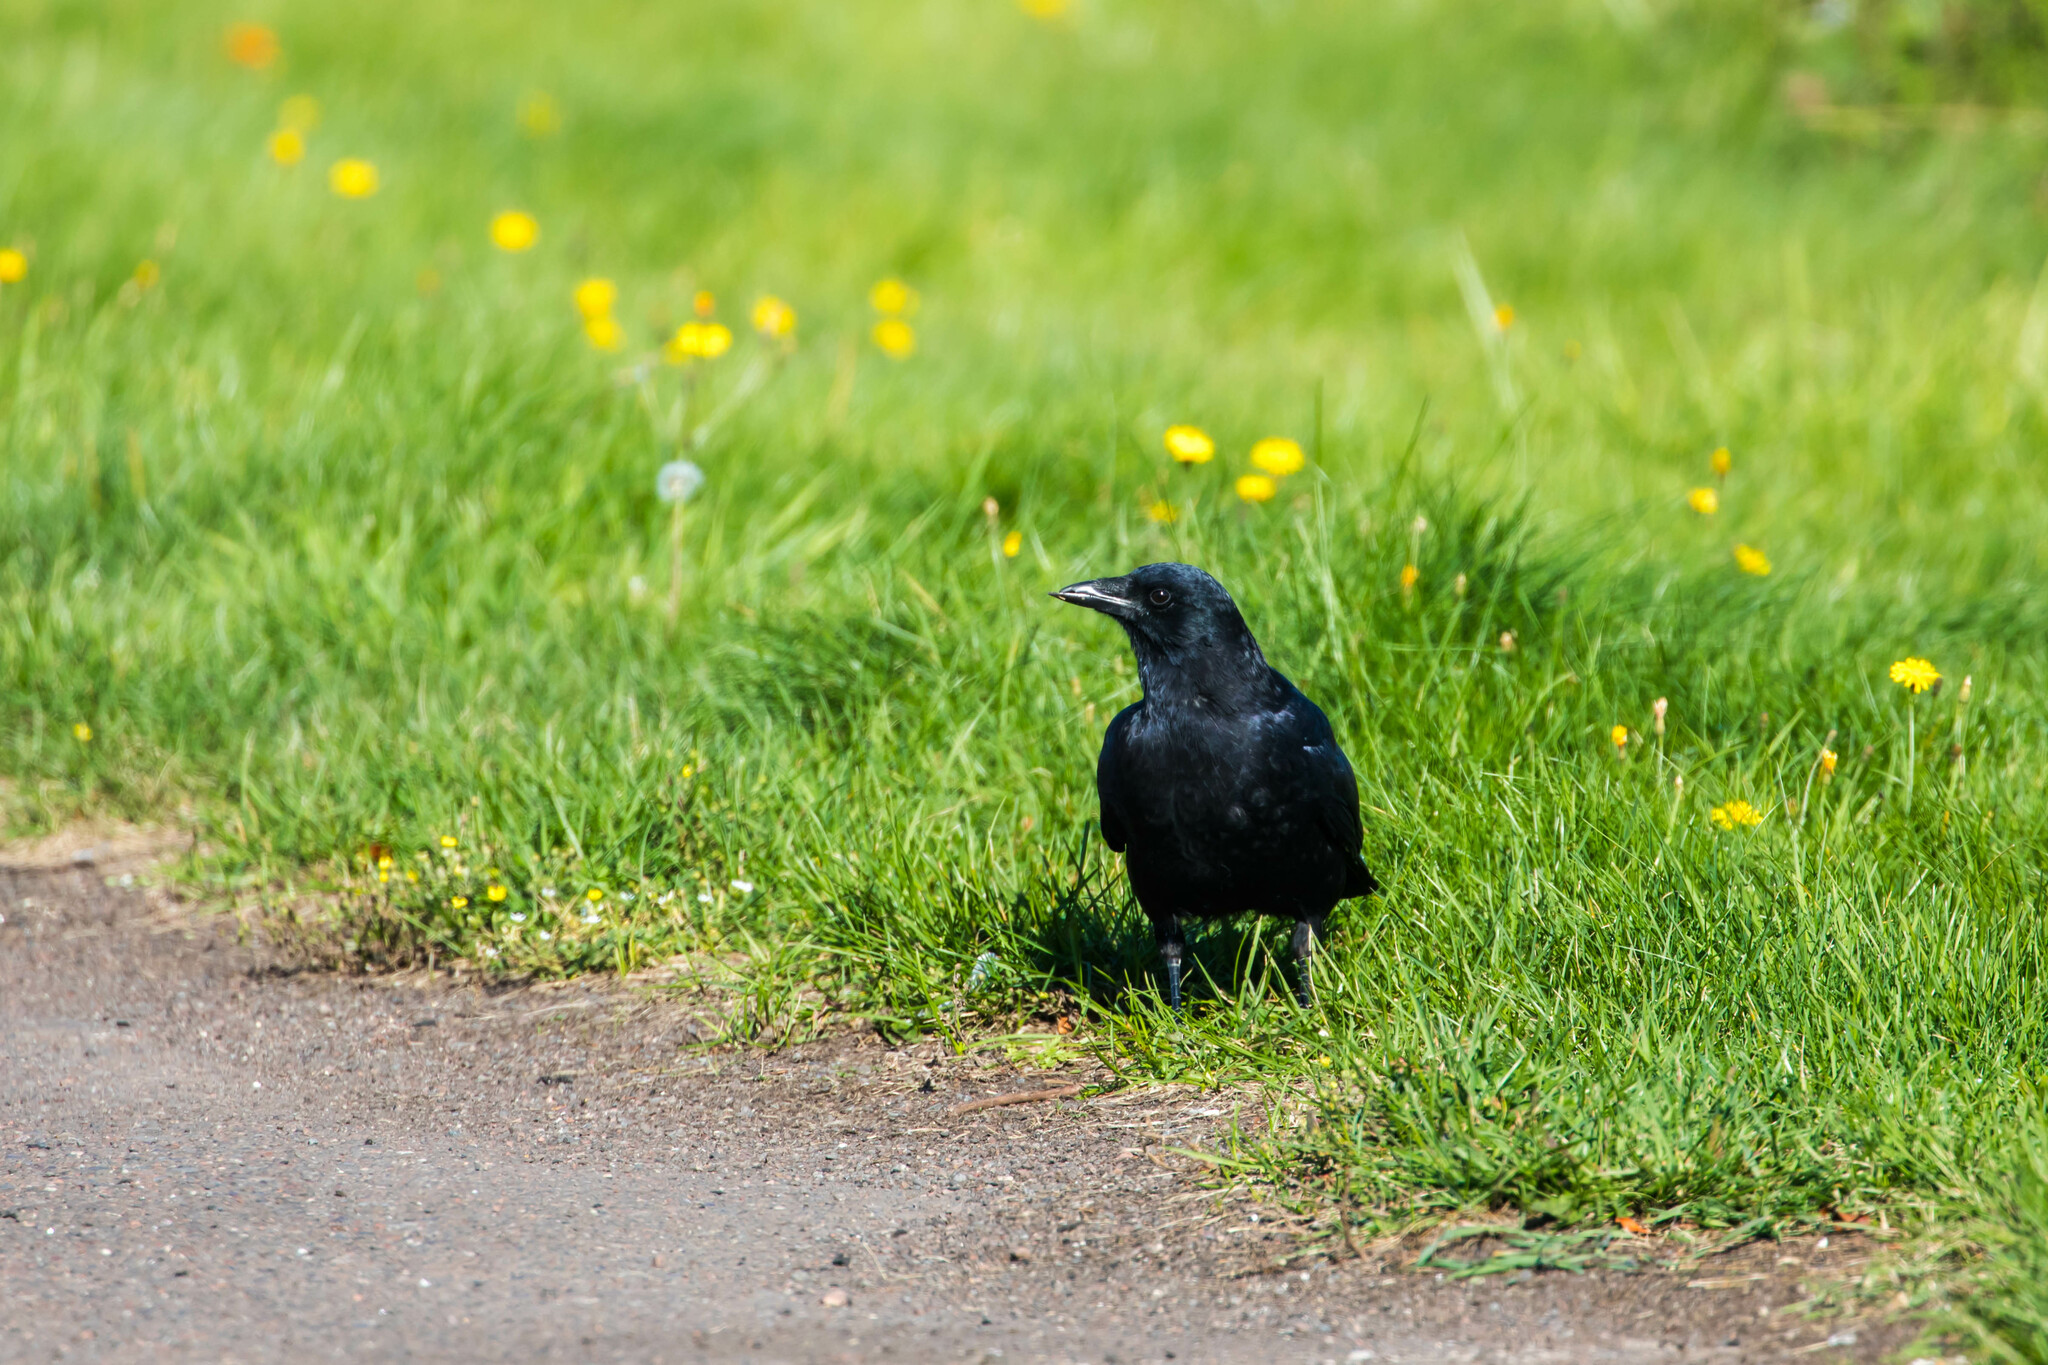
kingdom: Animalia
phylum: Chordata
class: Aves
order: Passeriformes
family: Corvidae
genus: Corvus
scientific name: Corvus brachyrhynchos
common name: American crow
